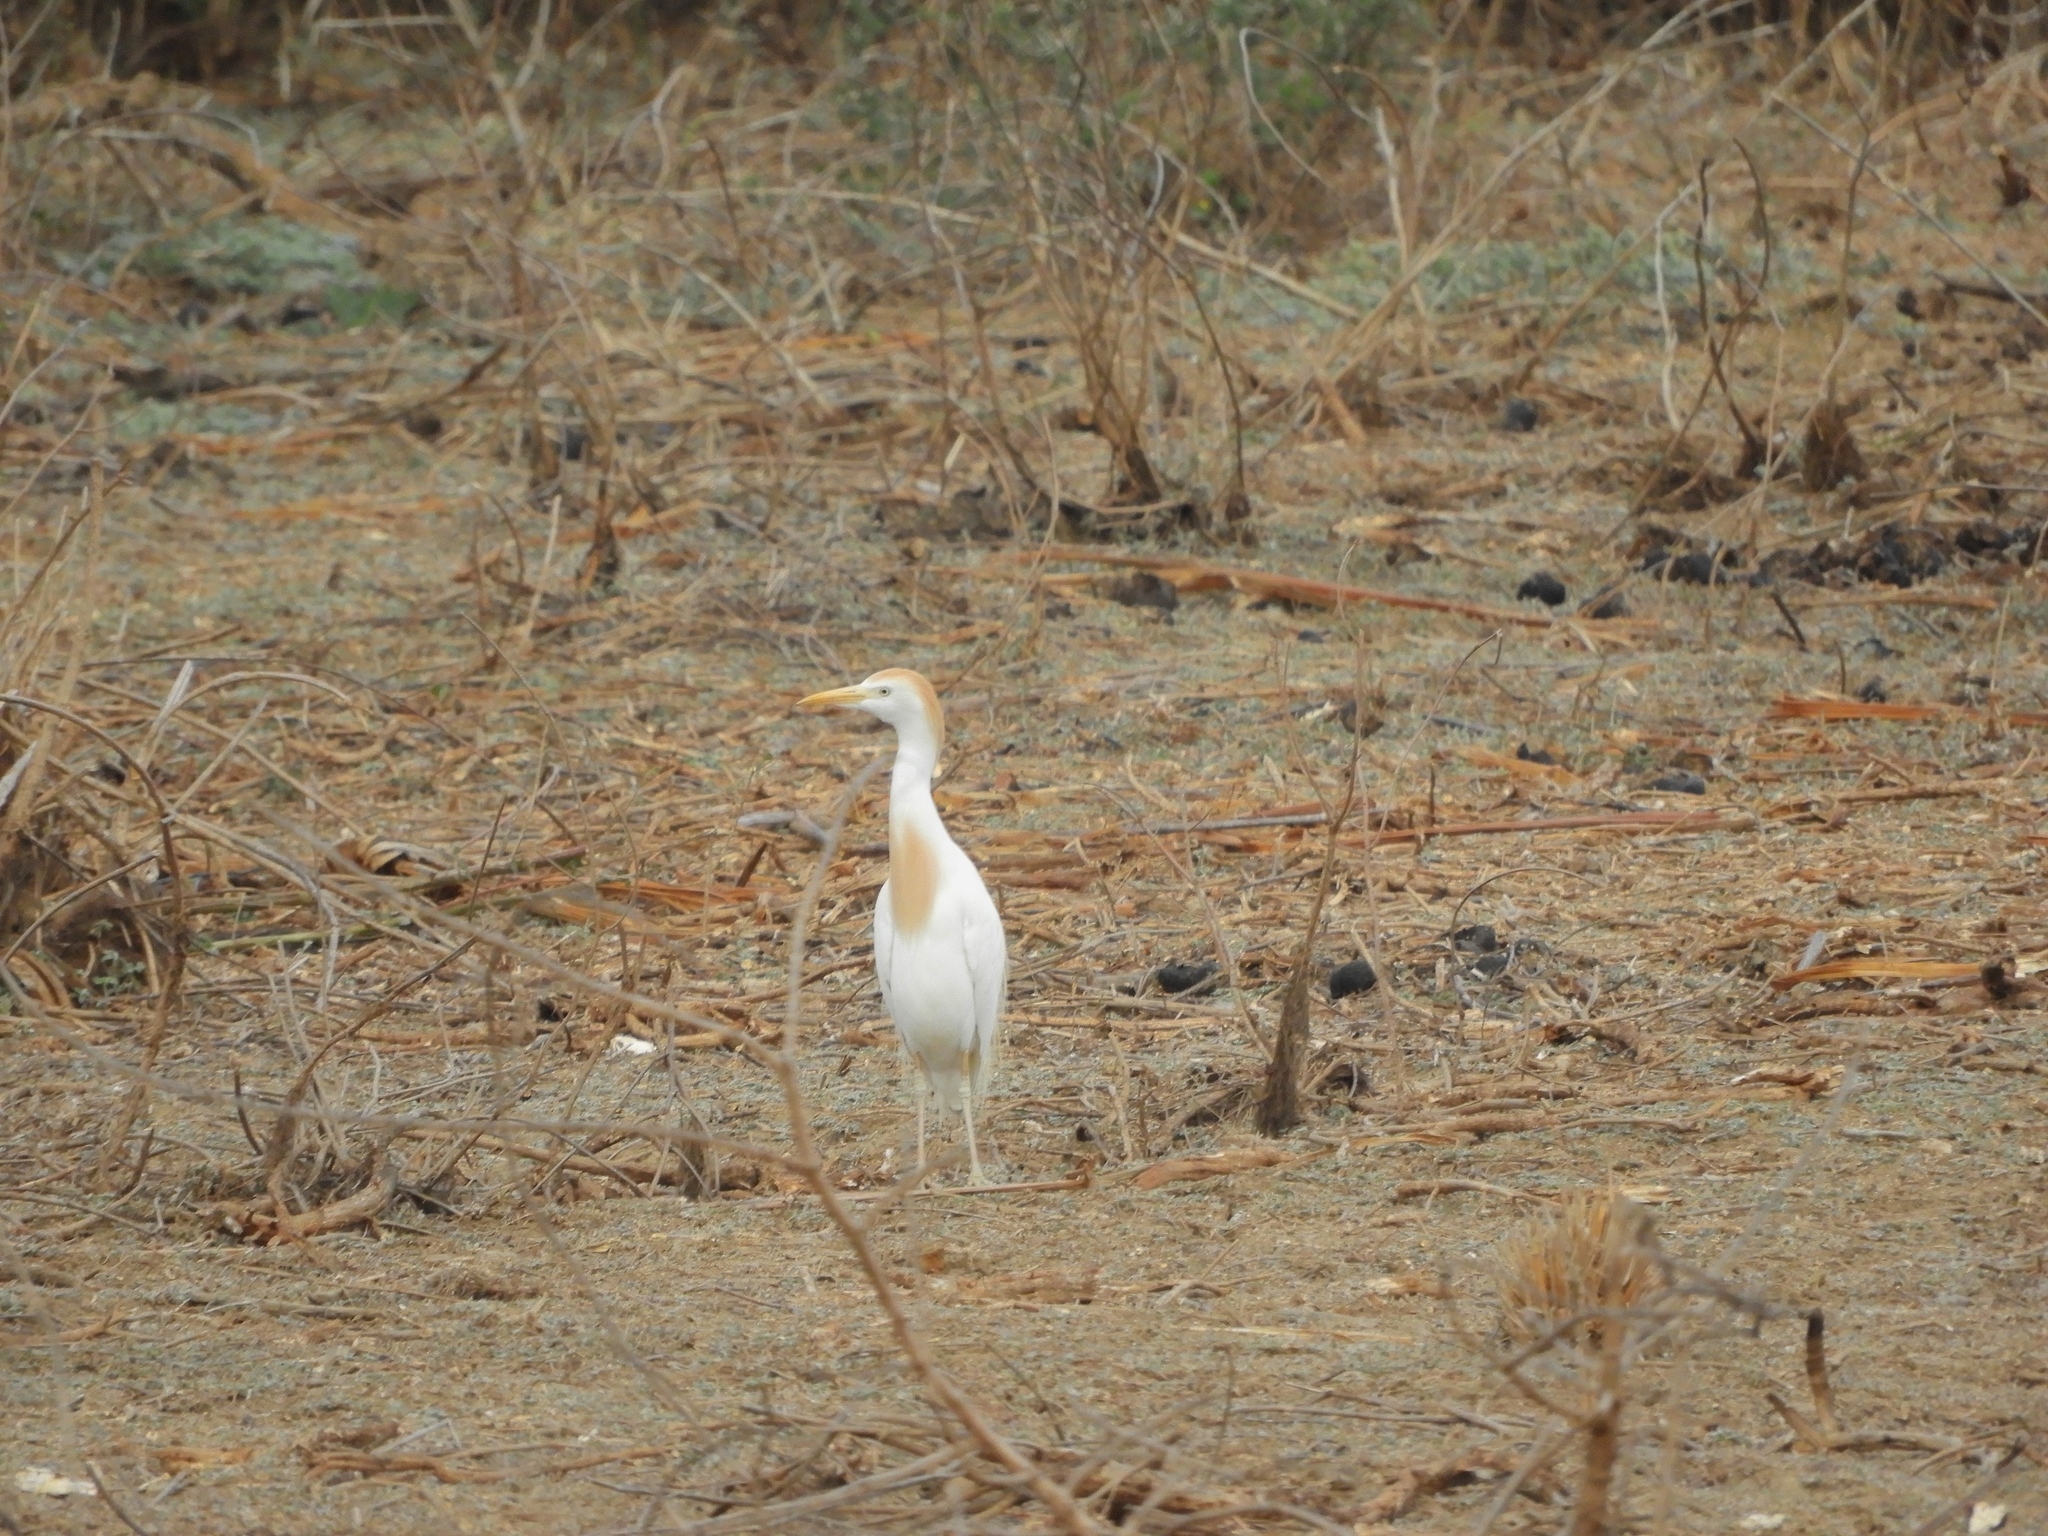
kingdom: Animalia
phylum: Chordata
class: Aves
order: Pelecaniformes
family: Ardeidae
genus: Bubulcus
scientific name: Bubulcus ibis
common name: Cattle egret
